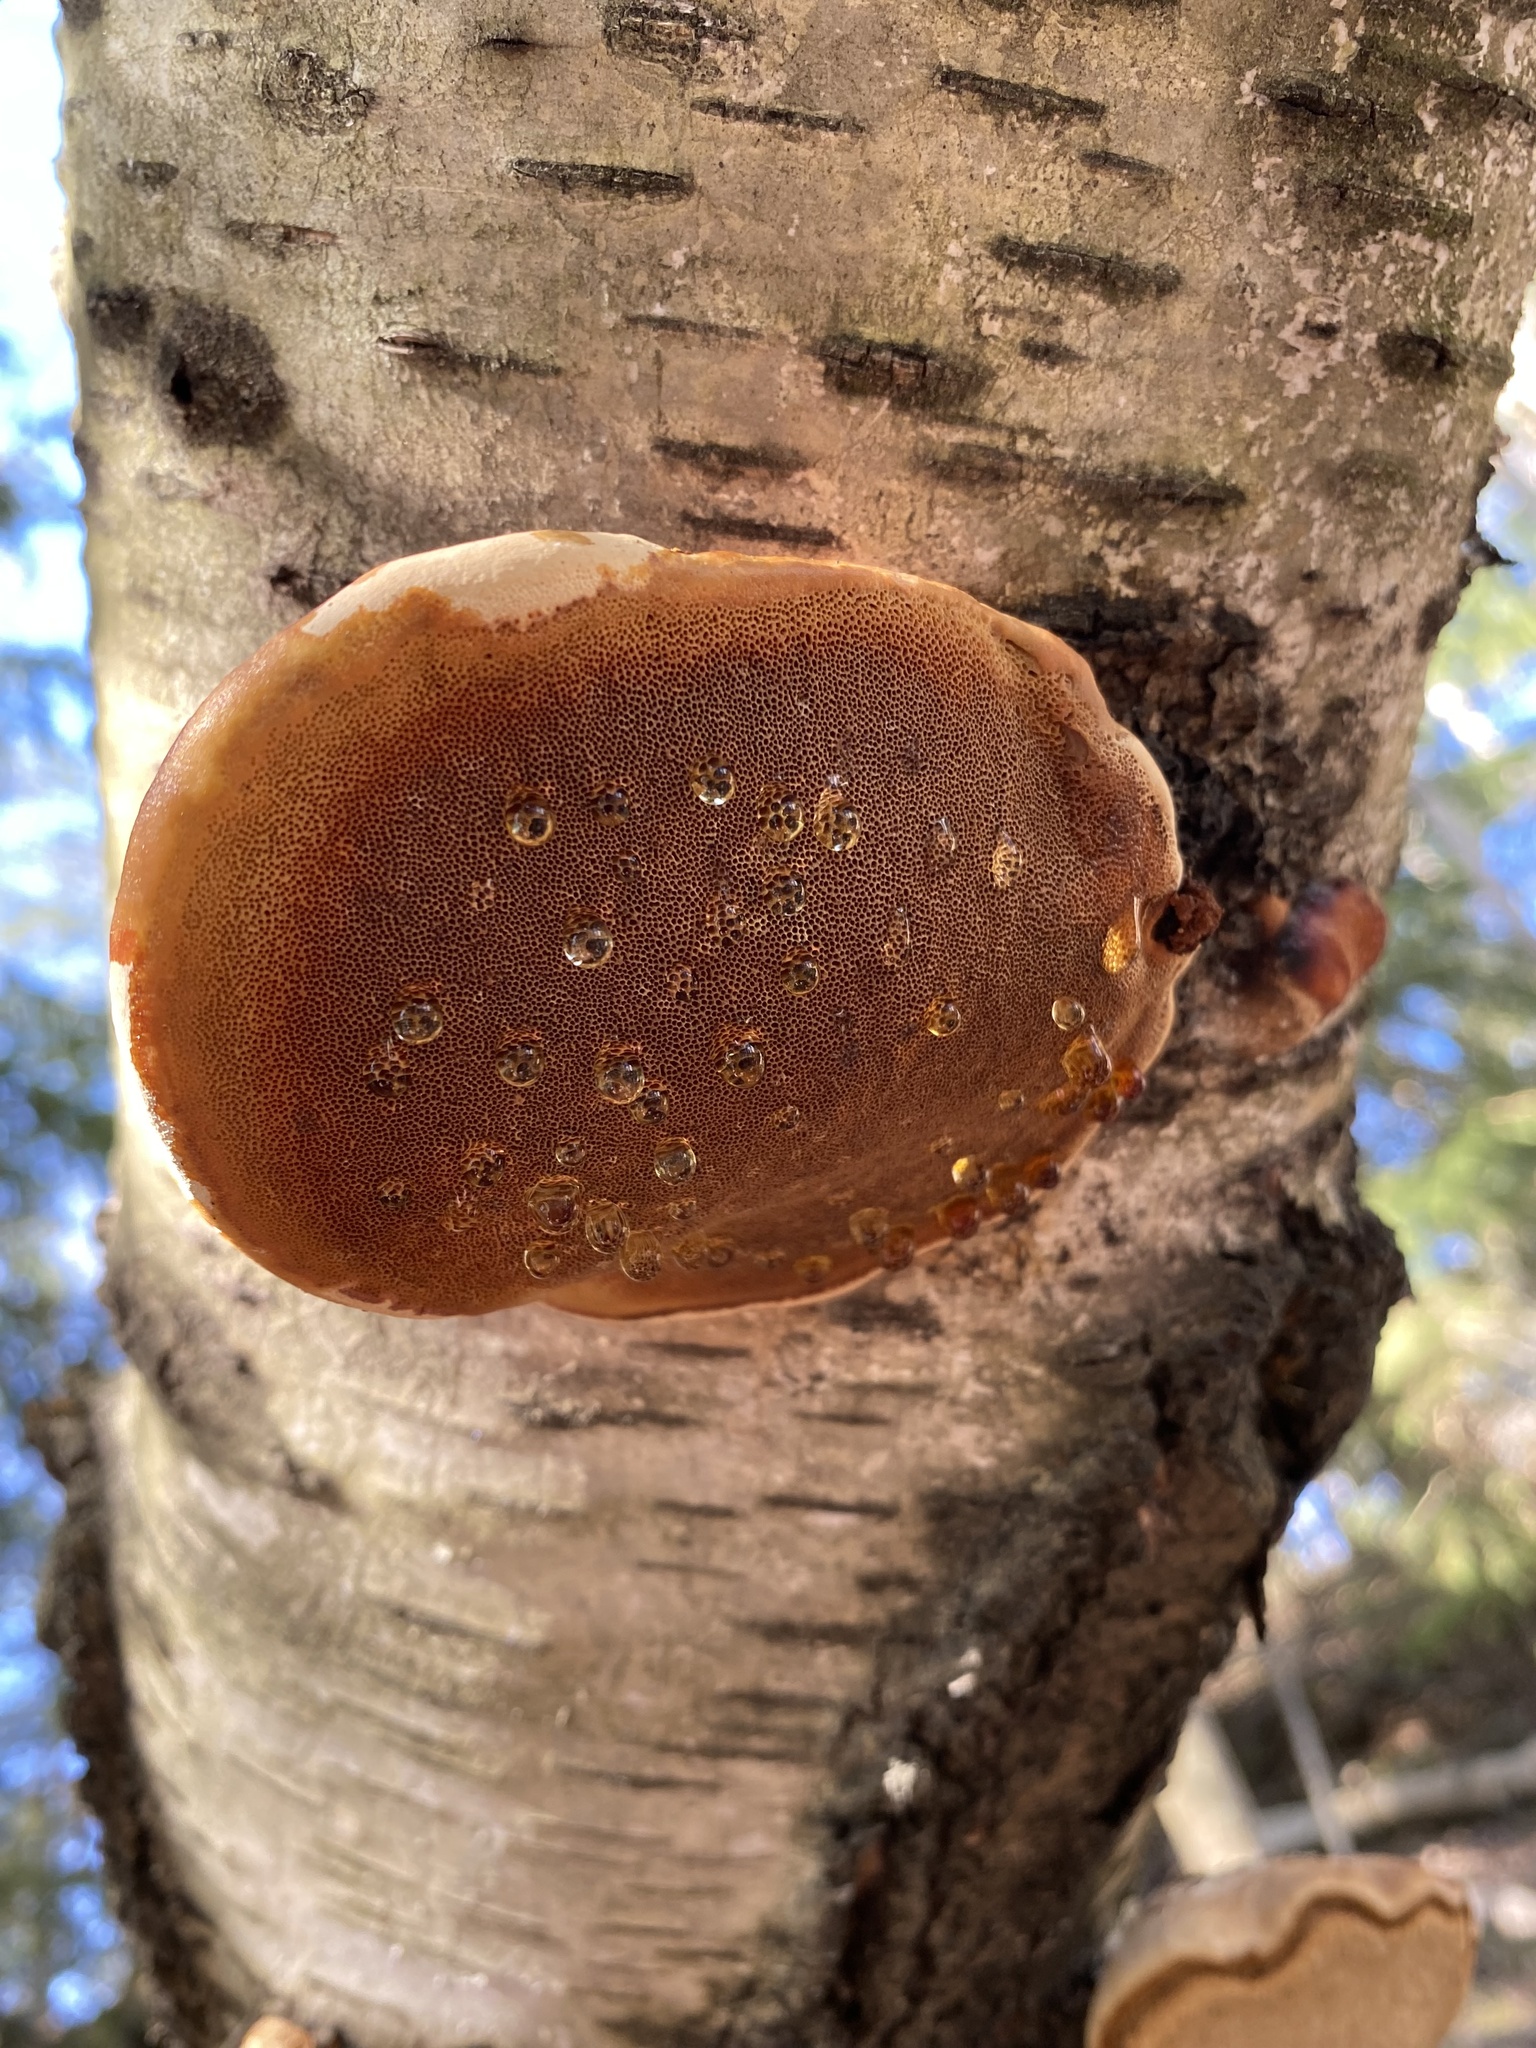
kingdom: Fungi
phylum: Basidiomycota
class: Agaricomycetes
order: Polyporales
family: Fomitopsidaceae
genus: Fomitopsis
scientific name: Fomitopsis pinicola
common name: Red-belted bracket
